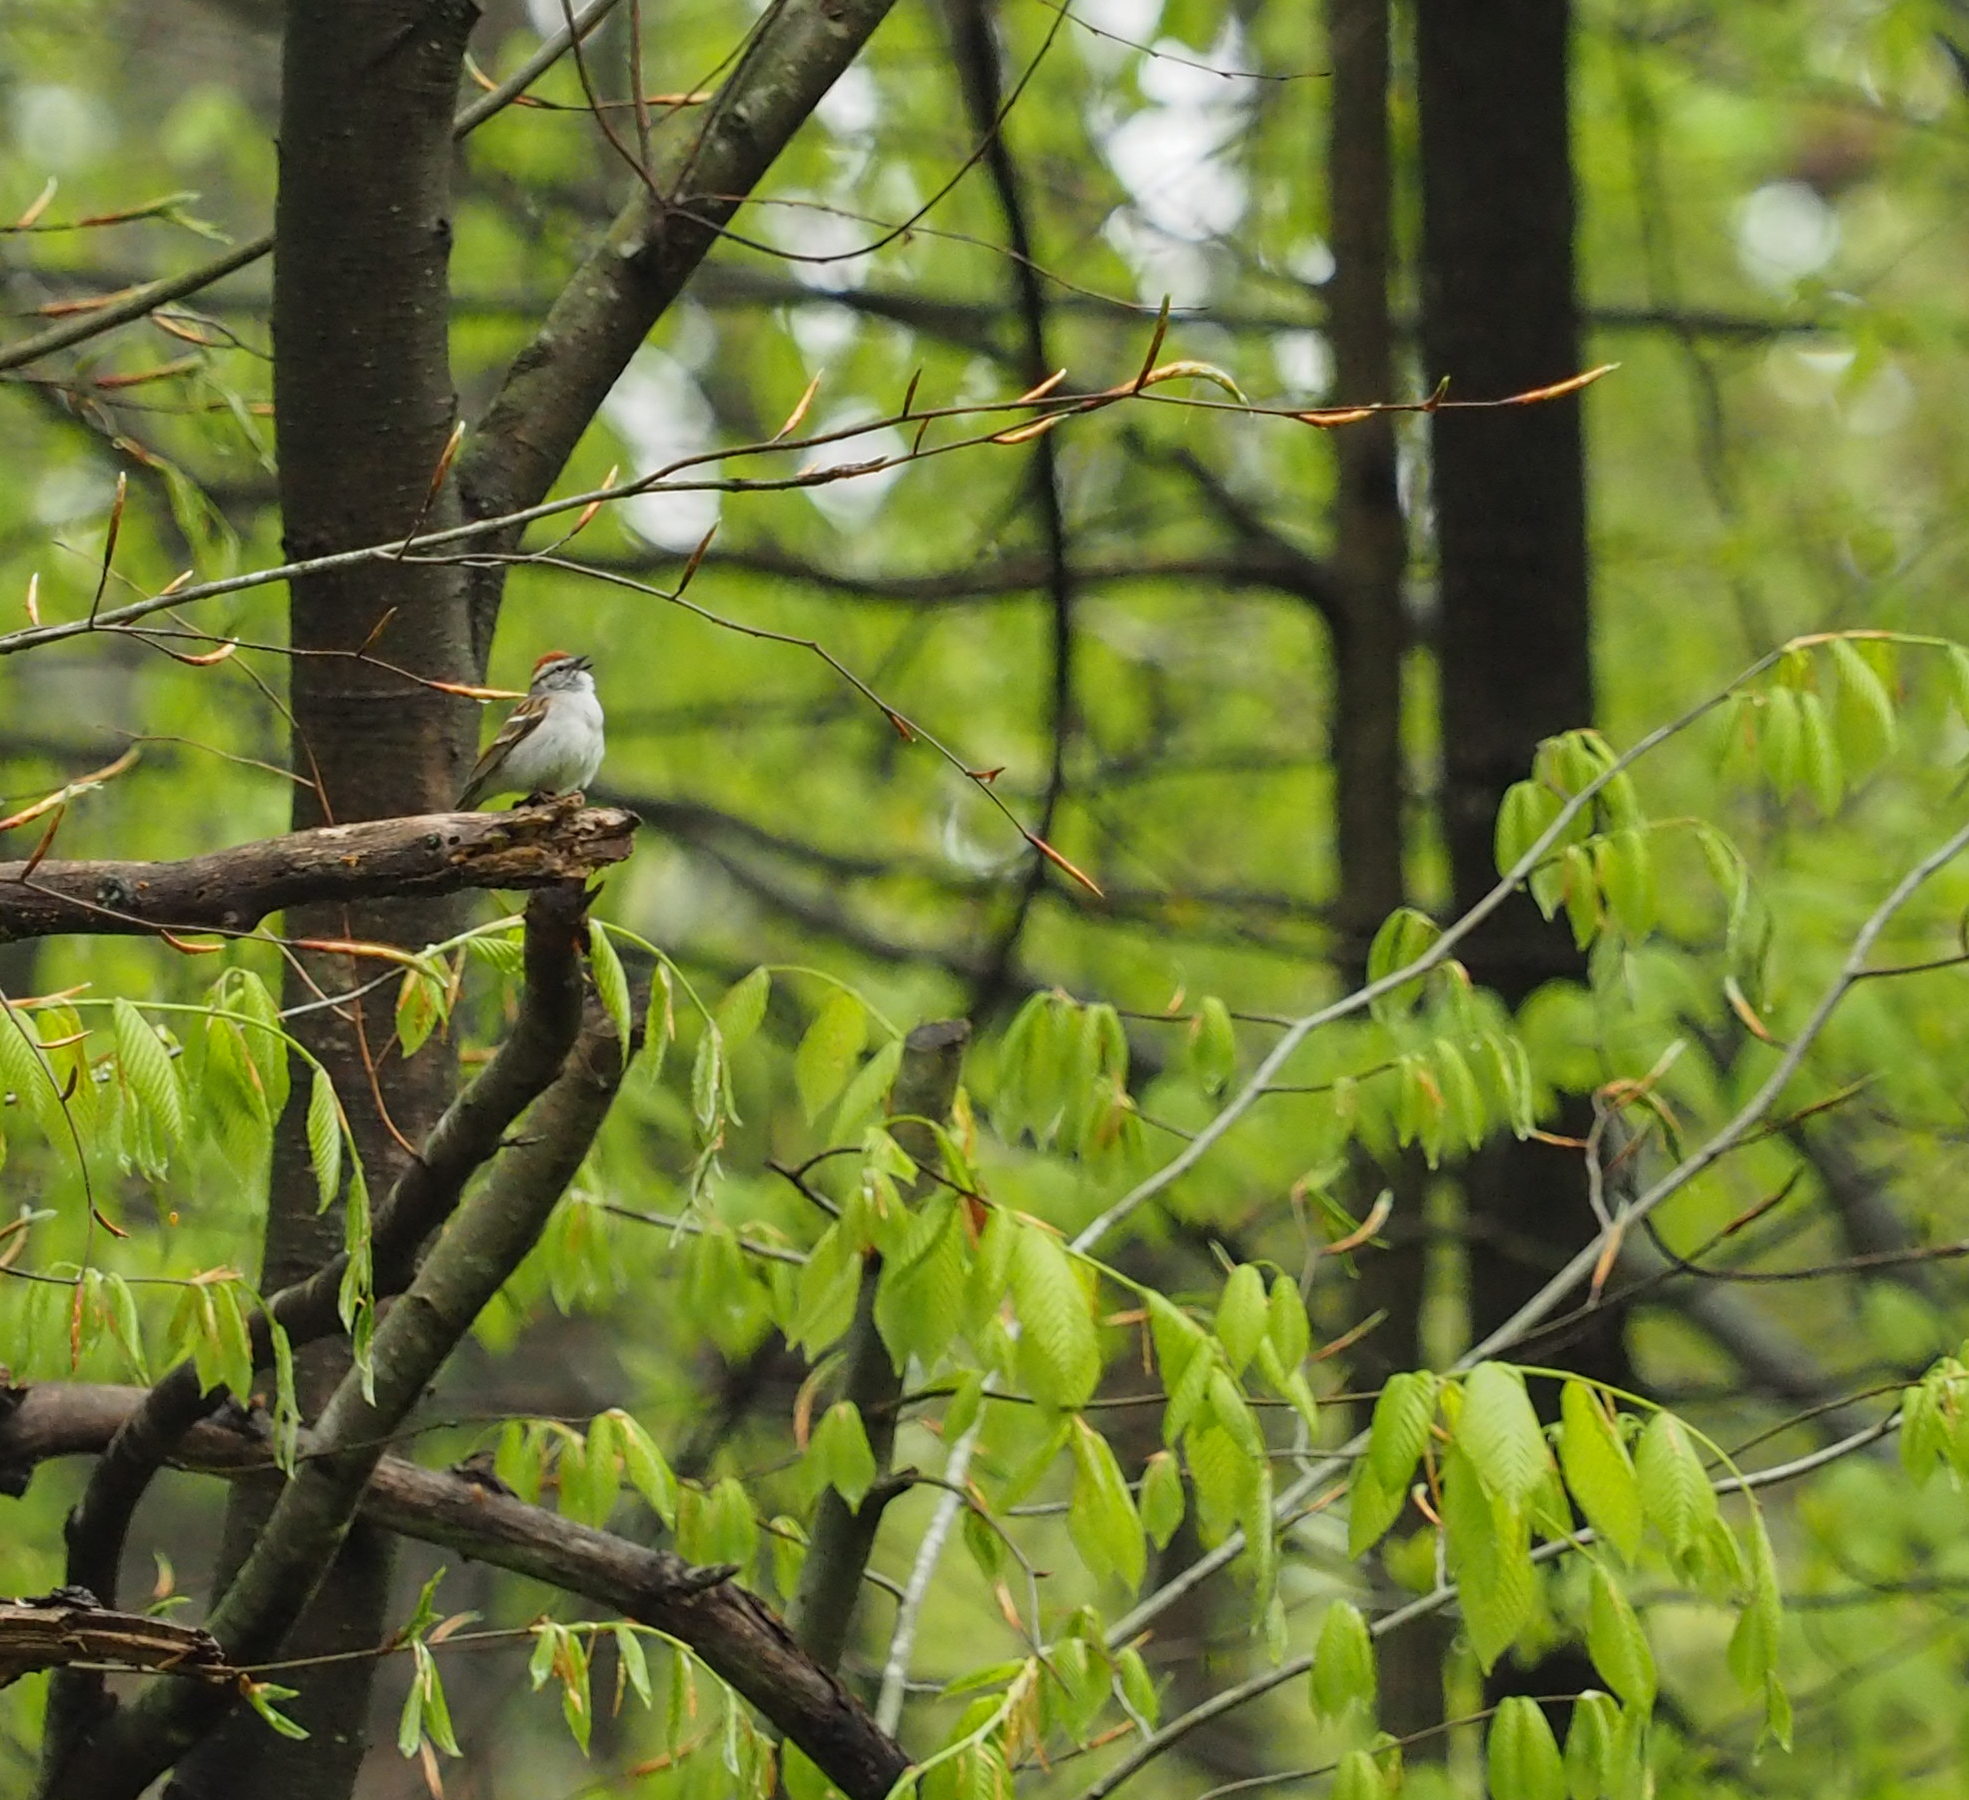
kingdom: Animalia
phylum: Chordata
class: Aves
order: Passeriformes
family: Passerellidae
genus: Spizella
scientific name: Spizella passerina
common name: Chipping sparrow
